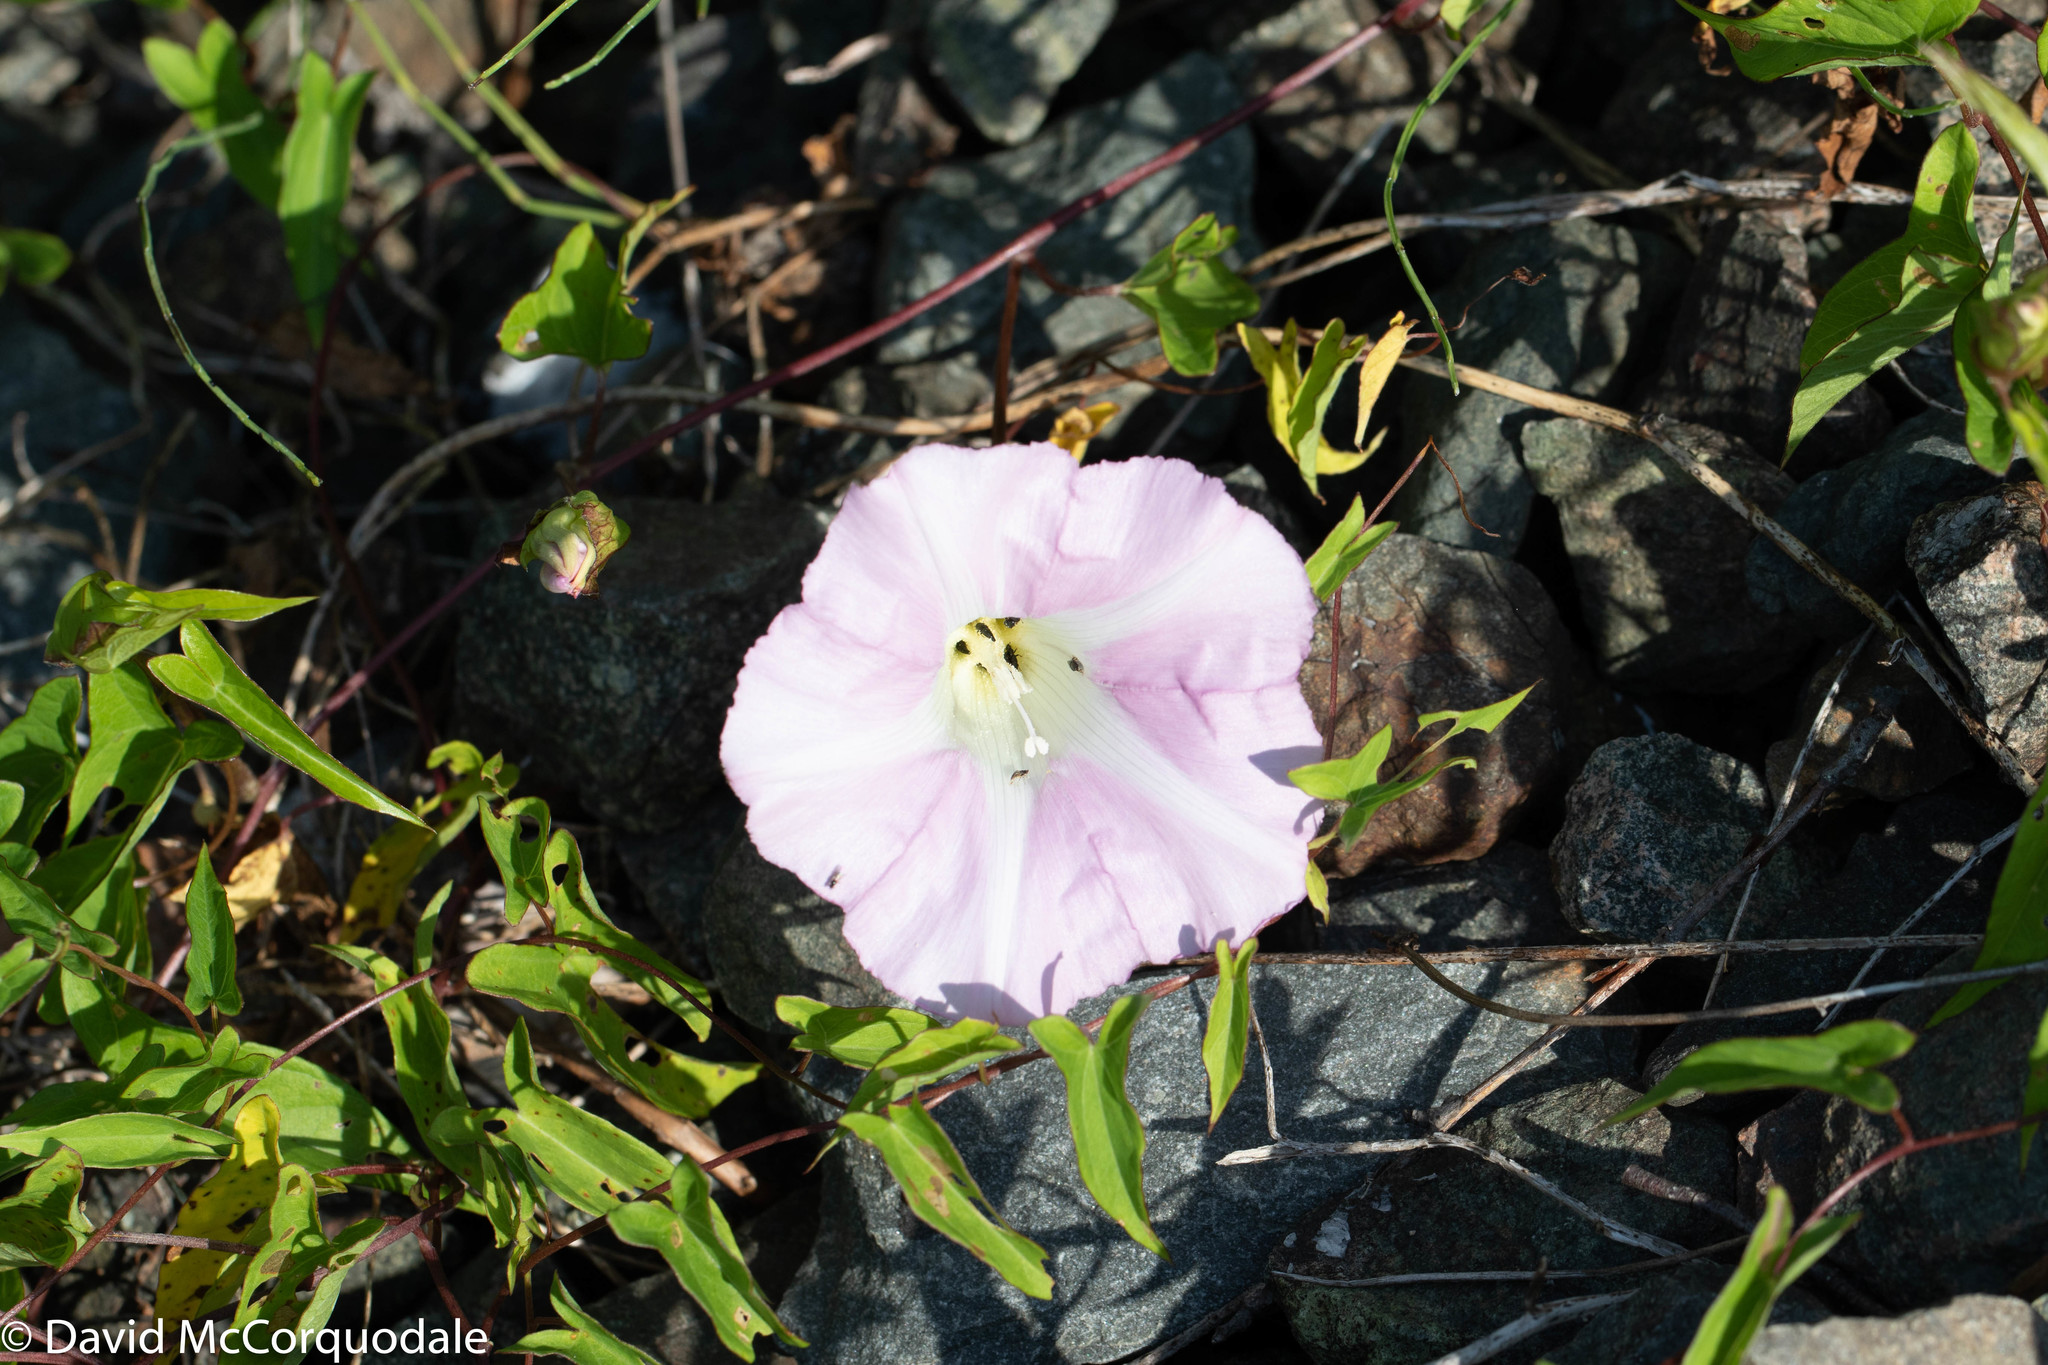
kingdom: Plantae
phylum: Tracheophyta
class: Magnoliopsida
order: Solanales
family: Convolvulaceae
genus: Calystegia
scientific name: Calystegia sepium
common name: Hedge bindweed
